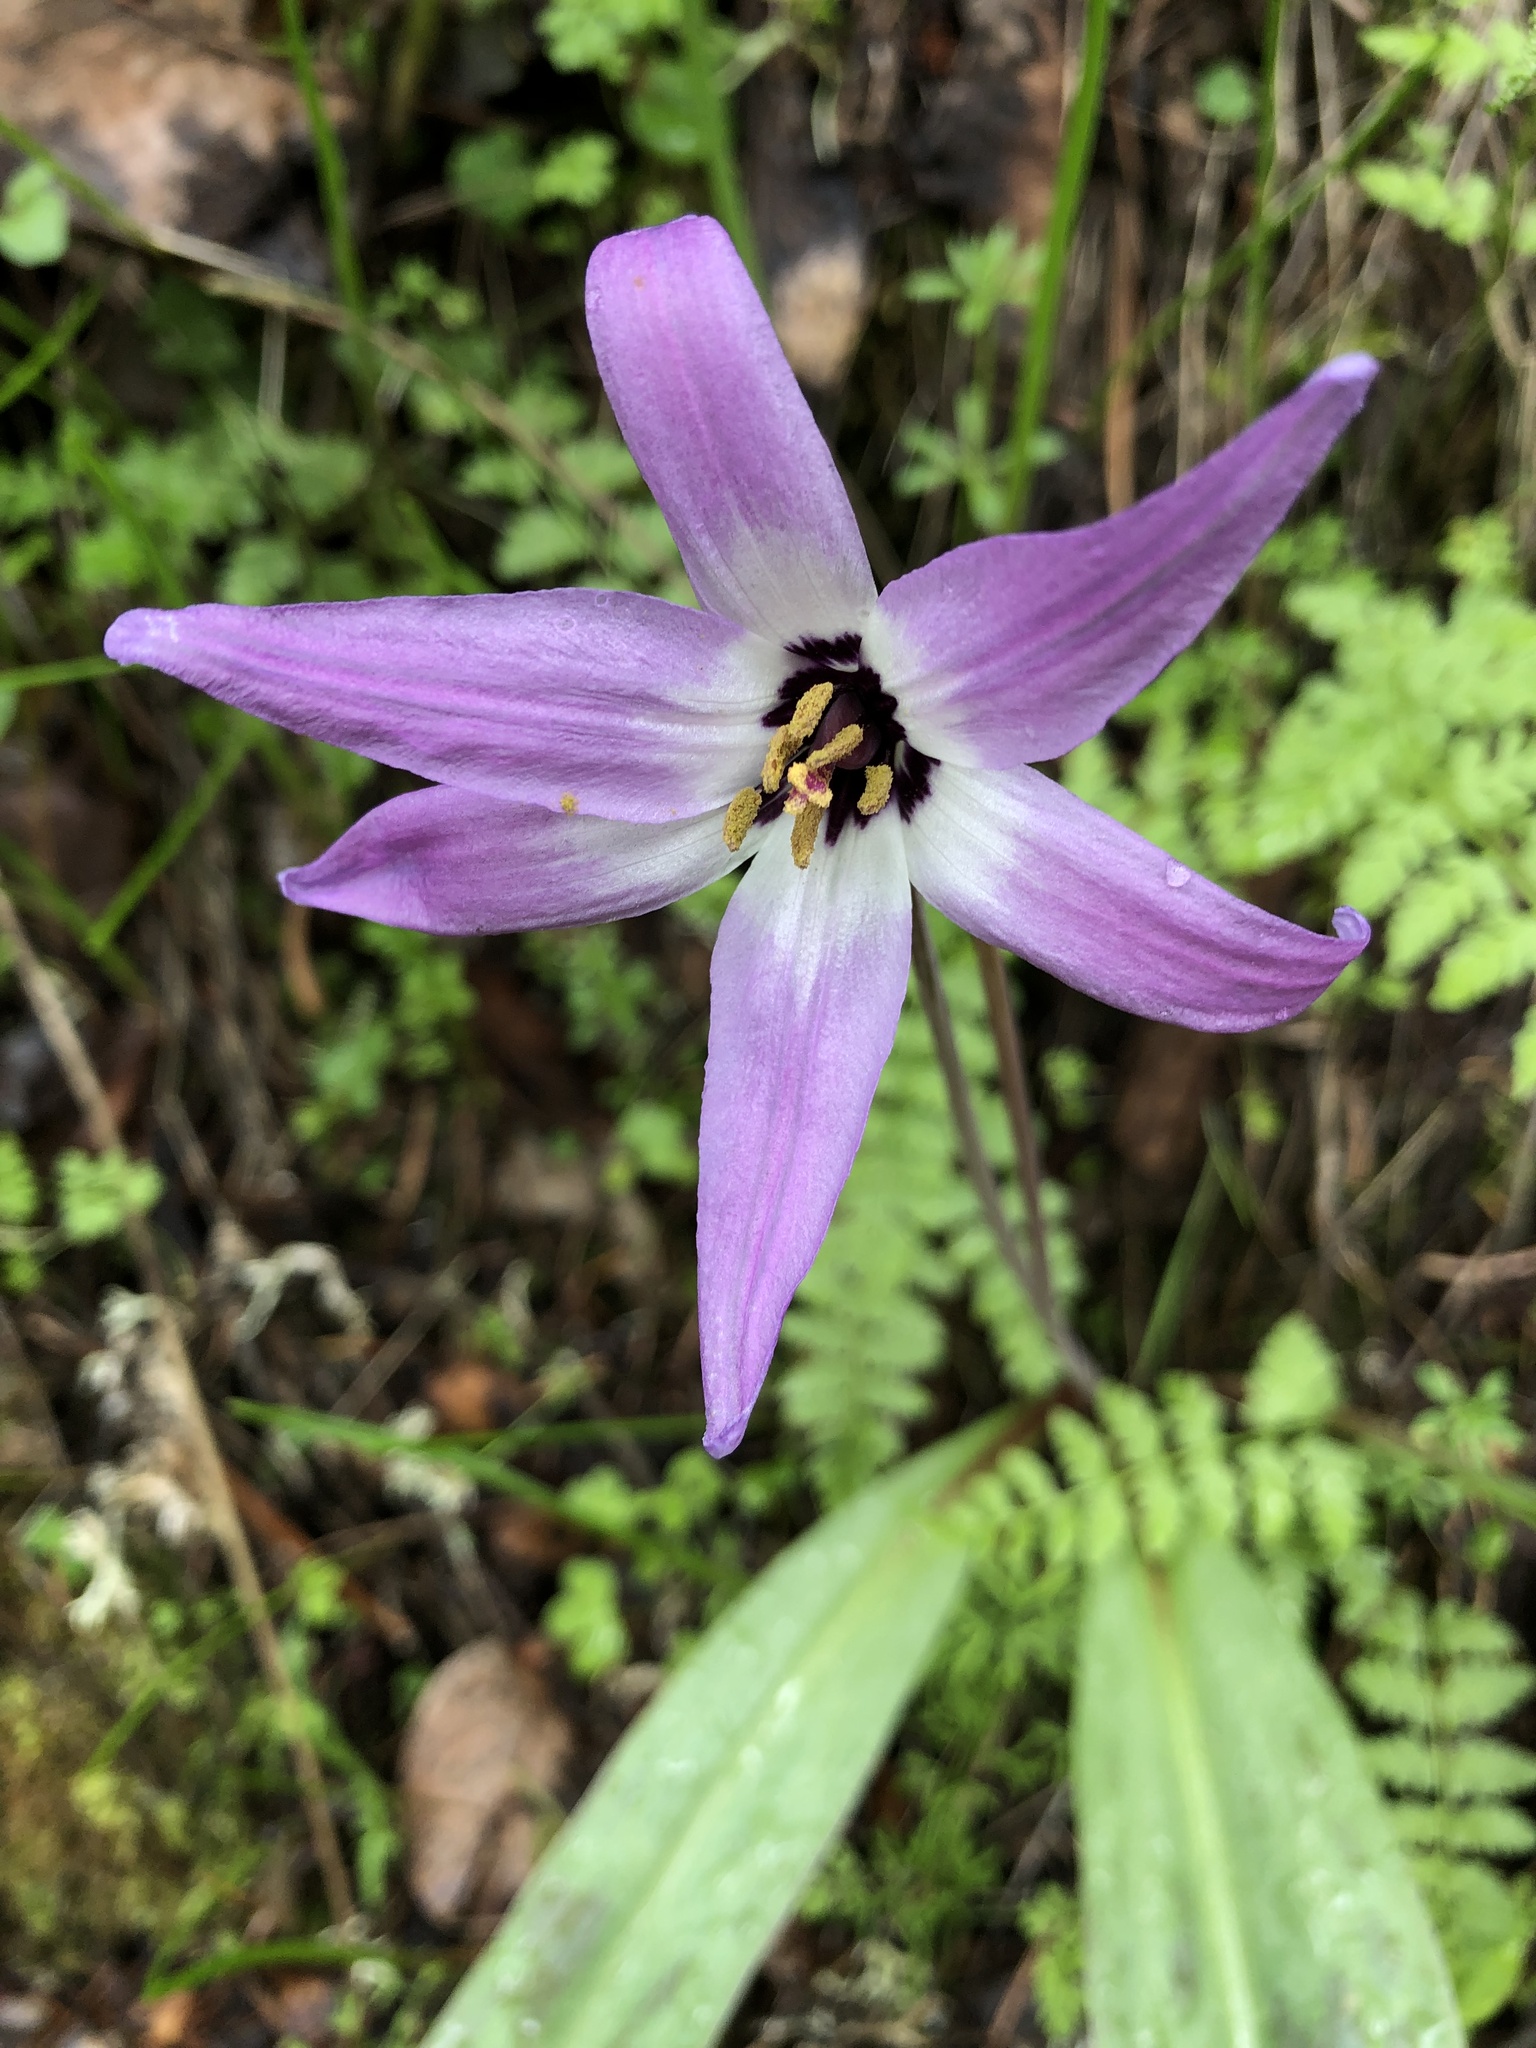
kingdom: Plantae
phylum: Tracheophyta
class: Liliopsida
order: Liliales
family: Liliaceae
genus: Erythronium
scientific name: Erythronium hendersonii
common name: Henderson's fawn-lily
